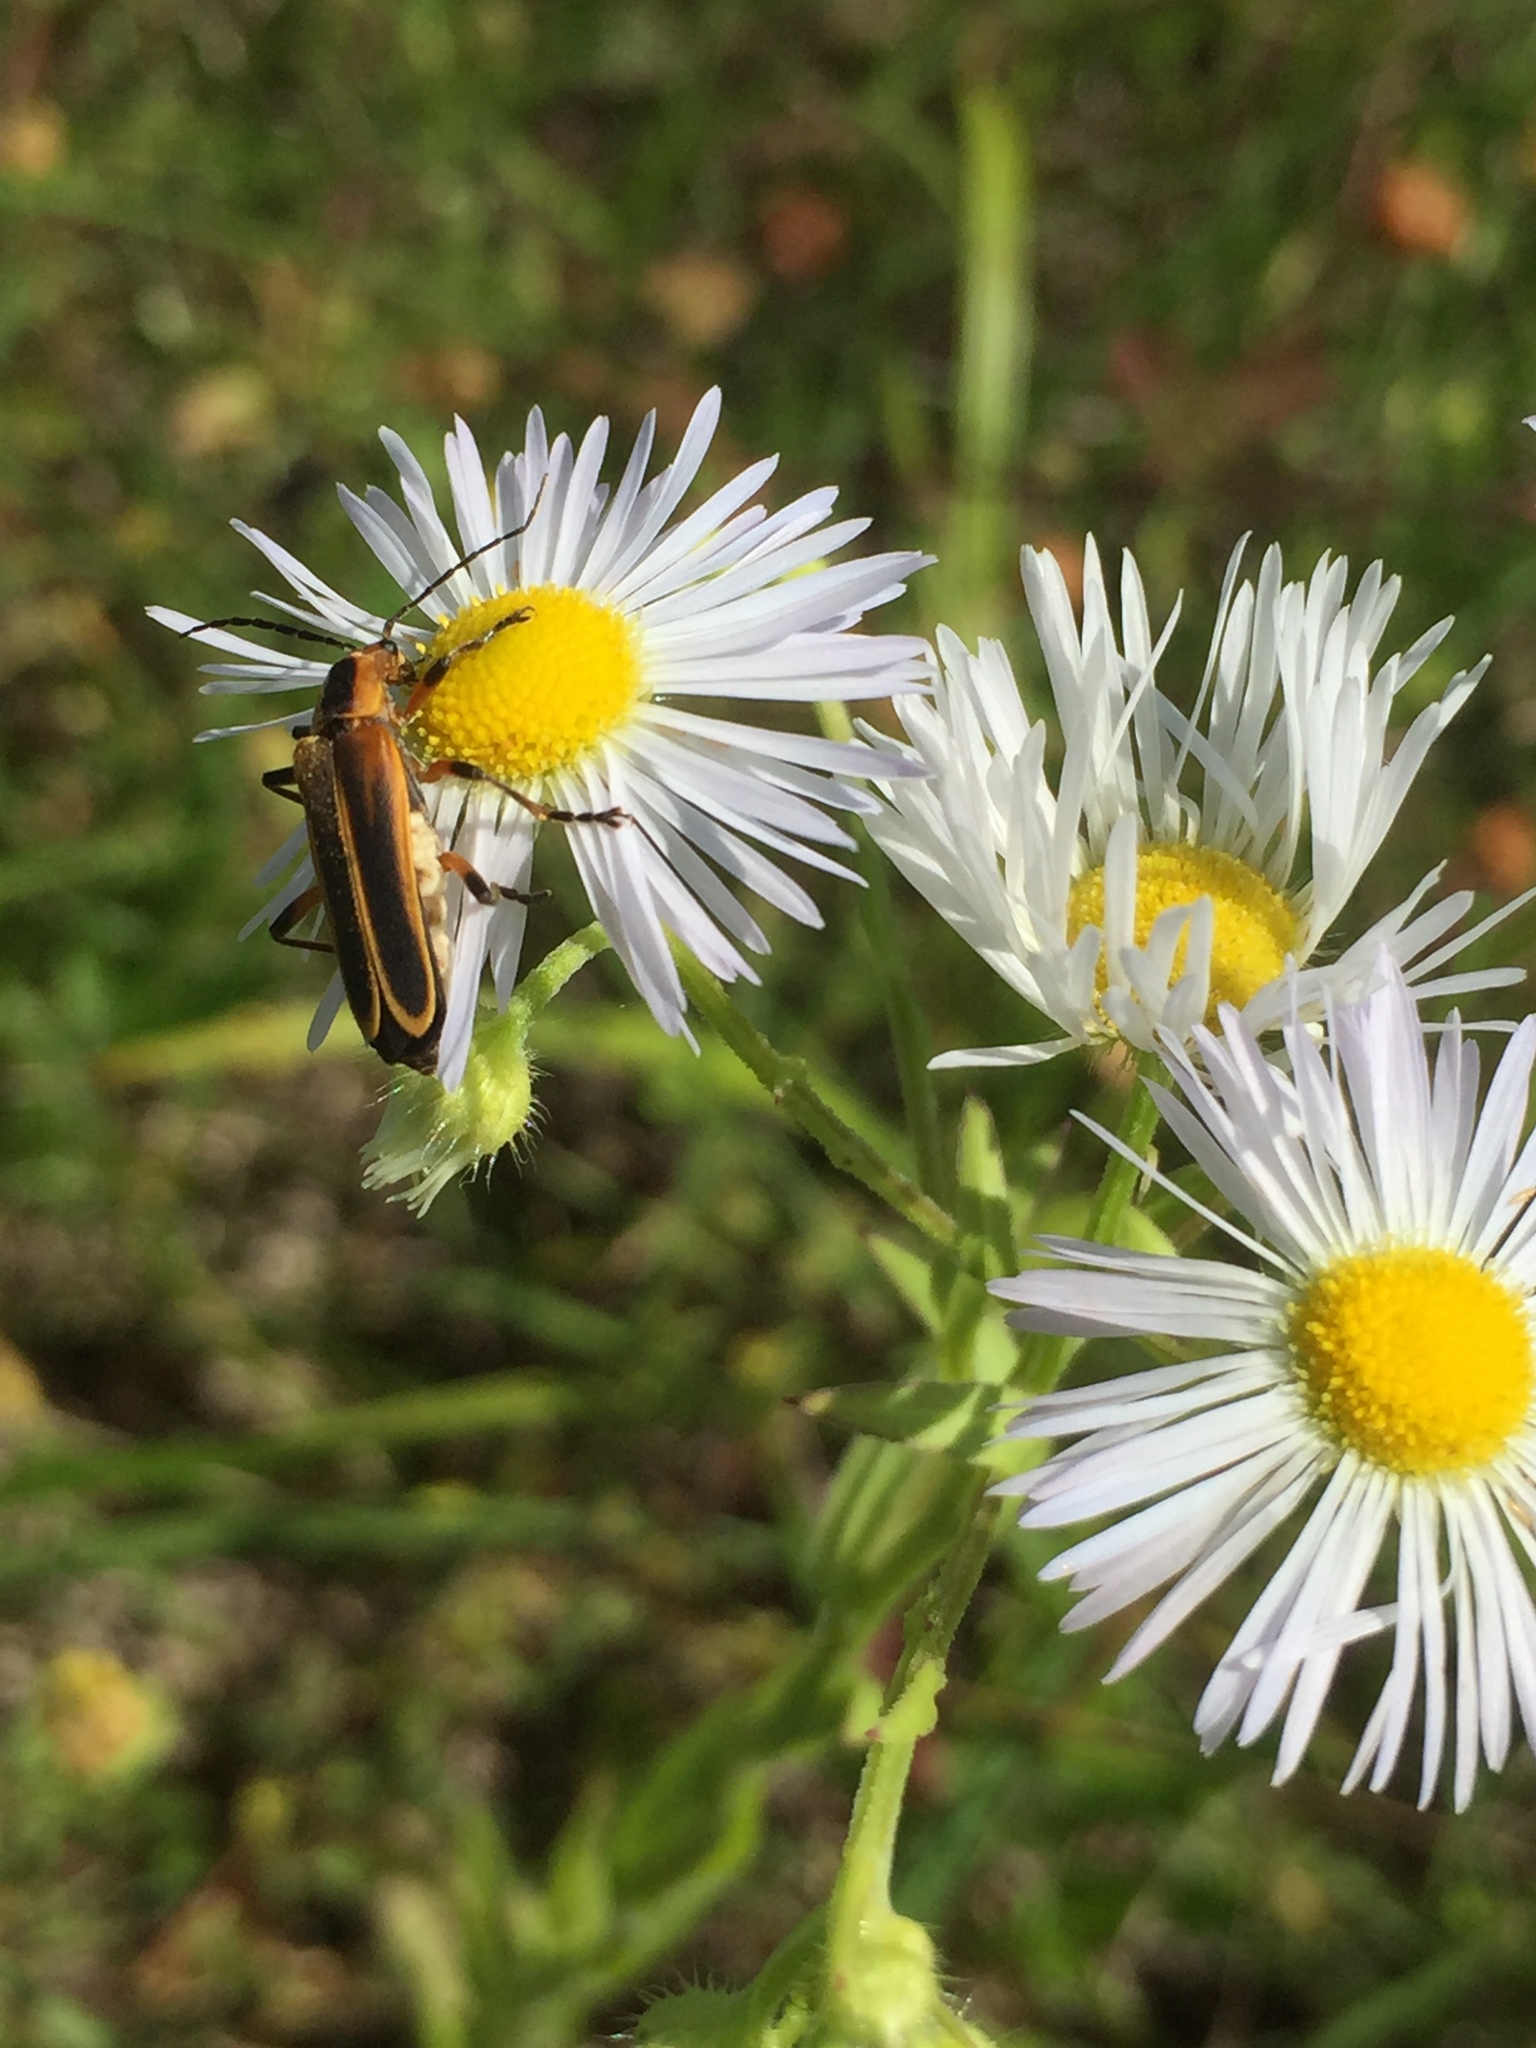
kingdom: Animalia
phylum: Arthropoda
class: Insecta
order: Coleoptera
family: Cantharidae
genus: Chauliognathus
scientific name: Chauliognathus marginatus
